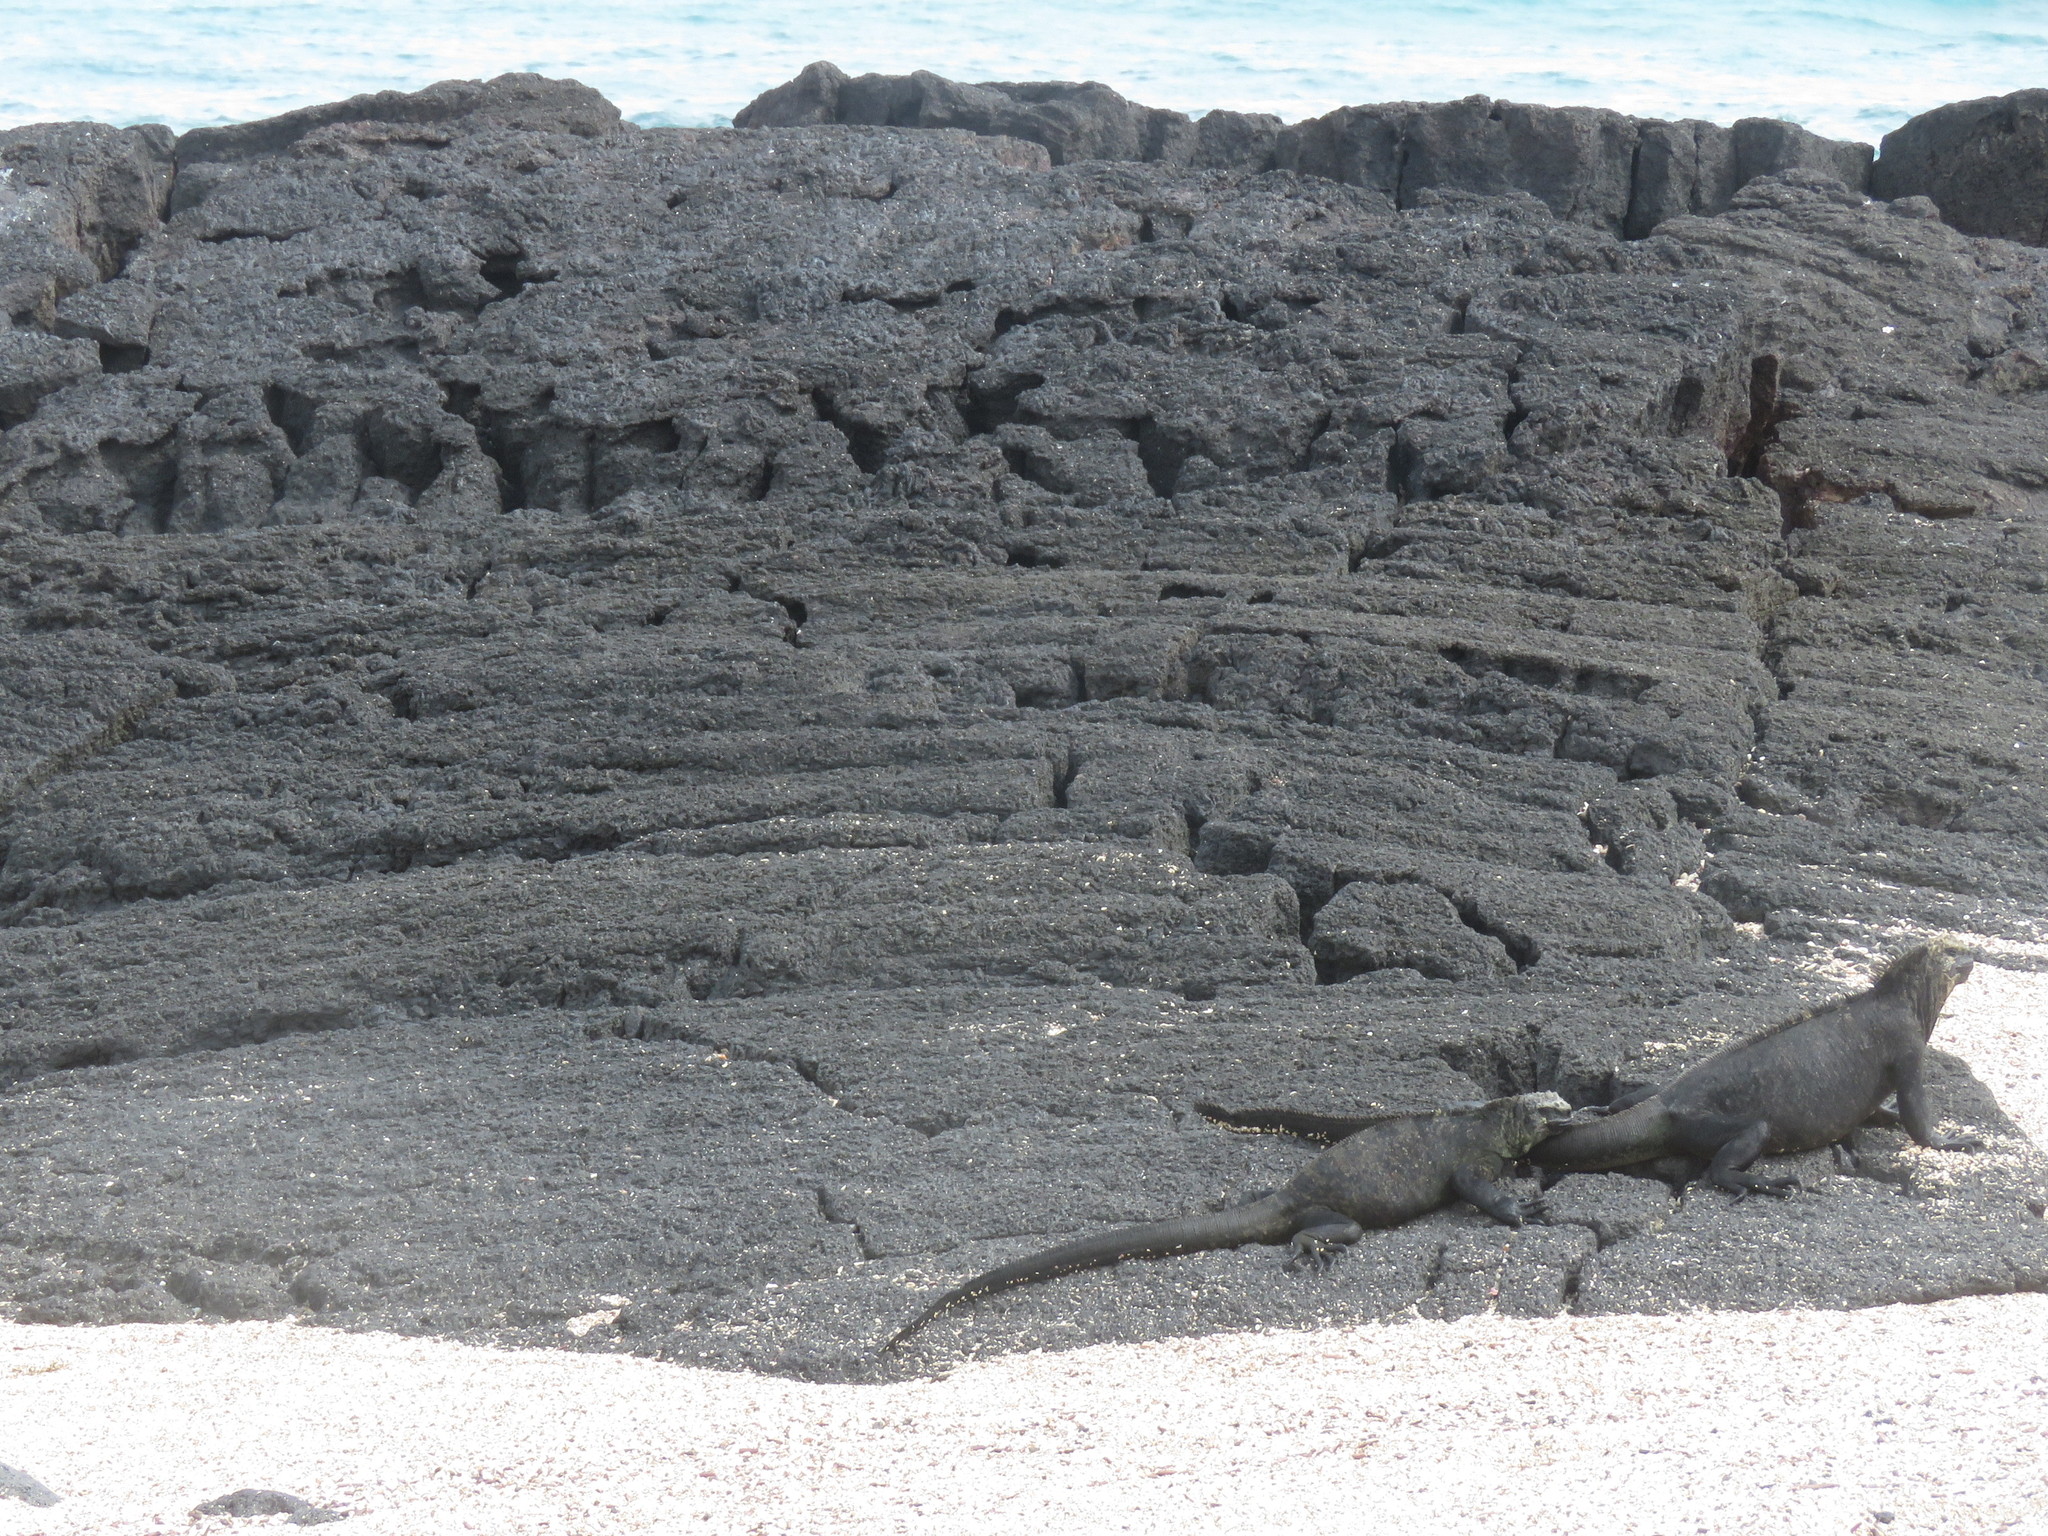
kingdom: Animalia
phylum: Chordata
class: Squamata
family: Iguanidae
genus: Amblyrhynchus
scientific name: Amblyrhynchus cristatus
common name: Marine iguana
